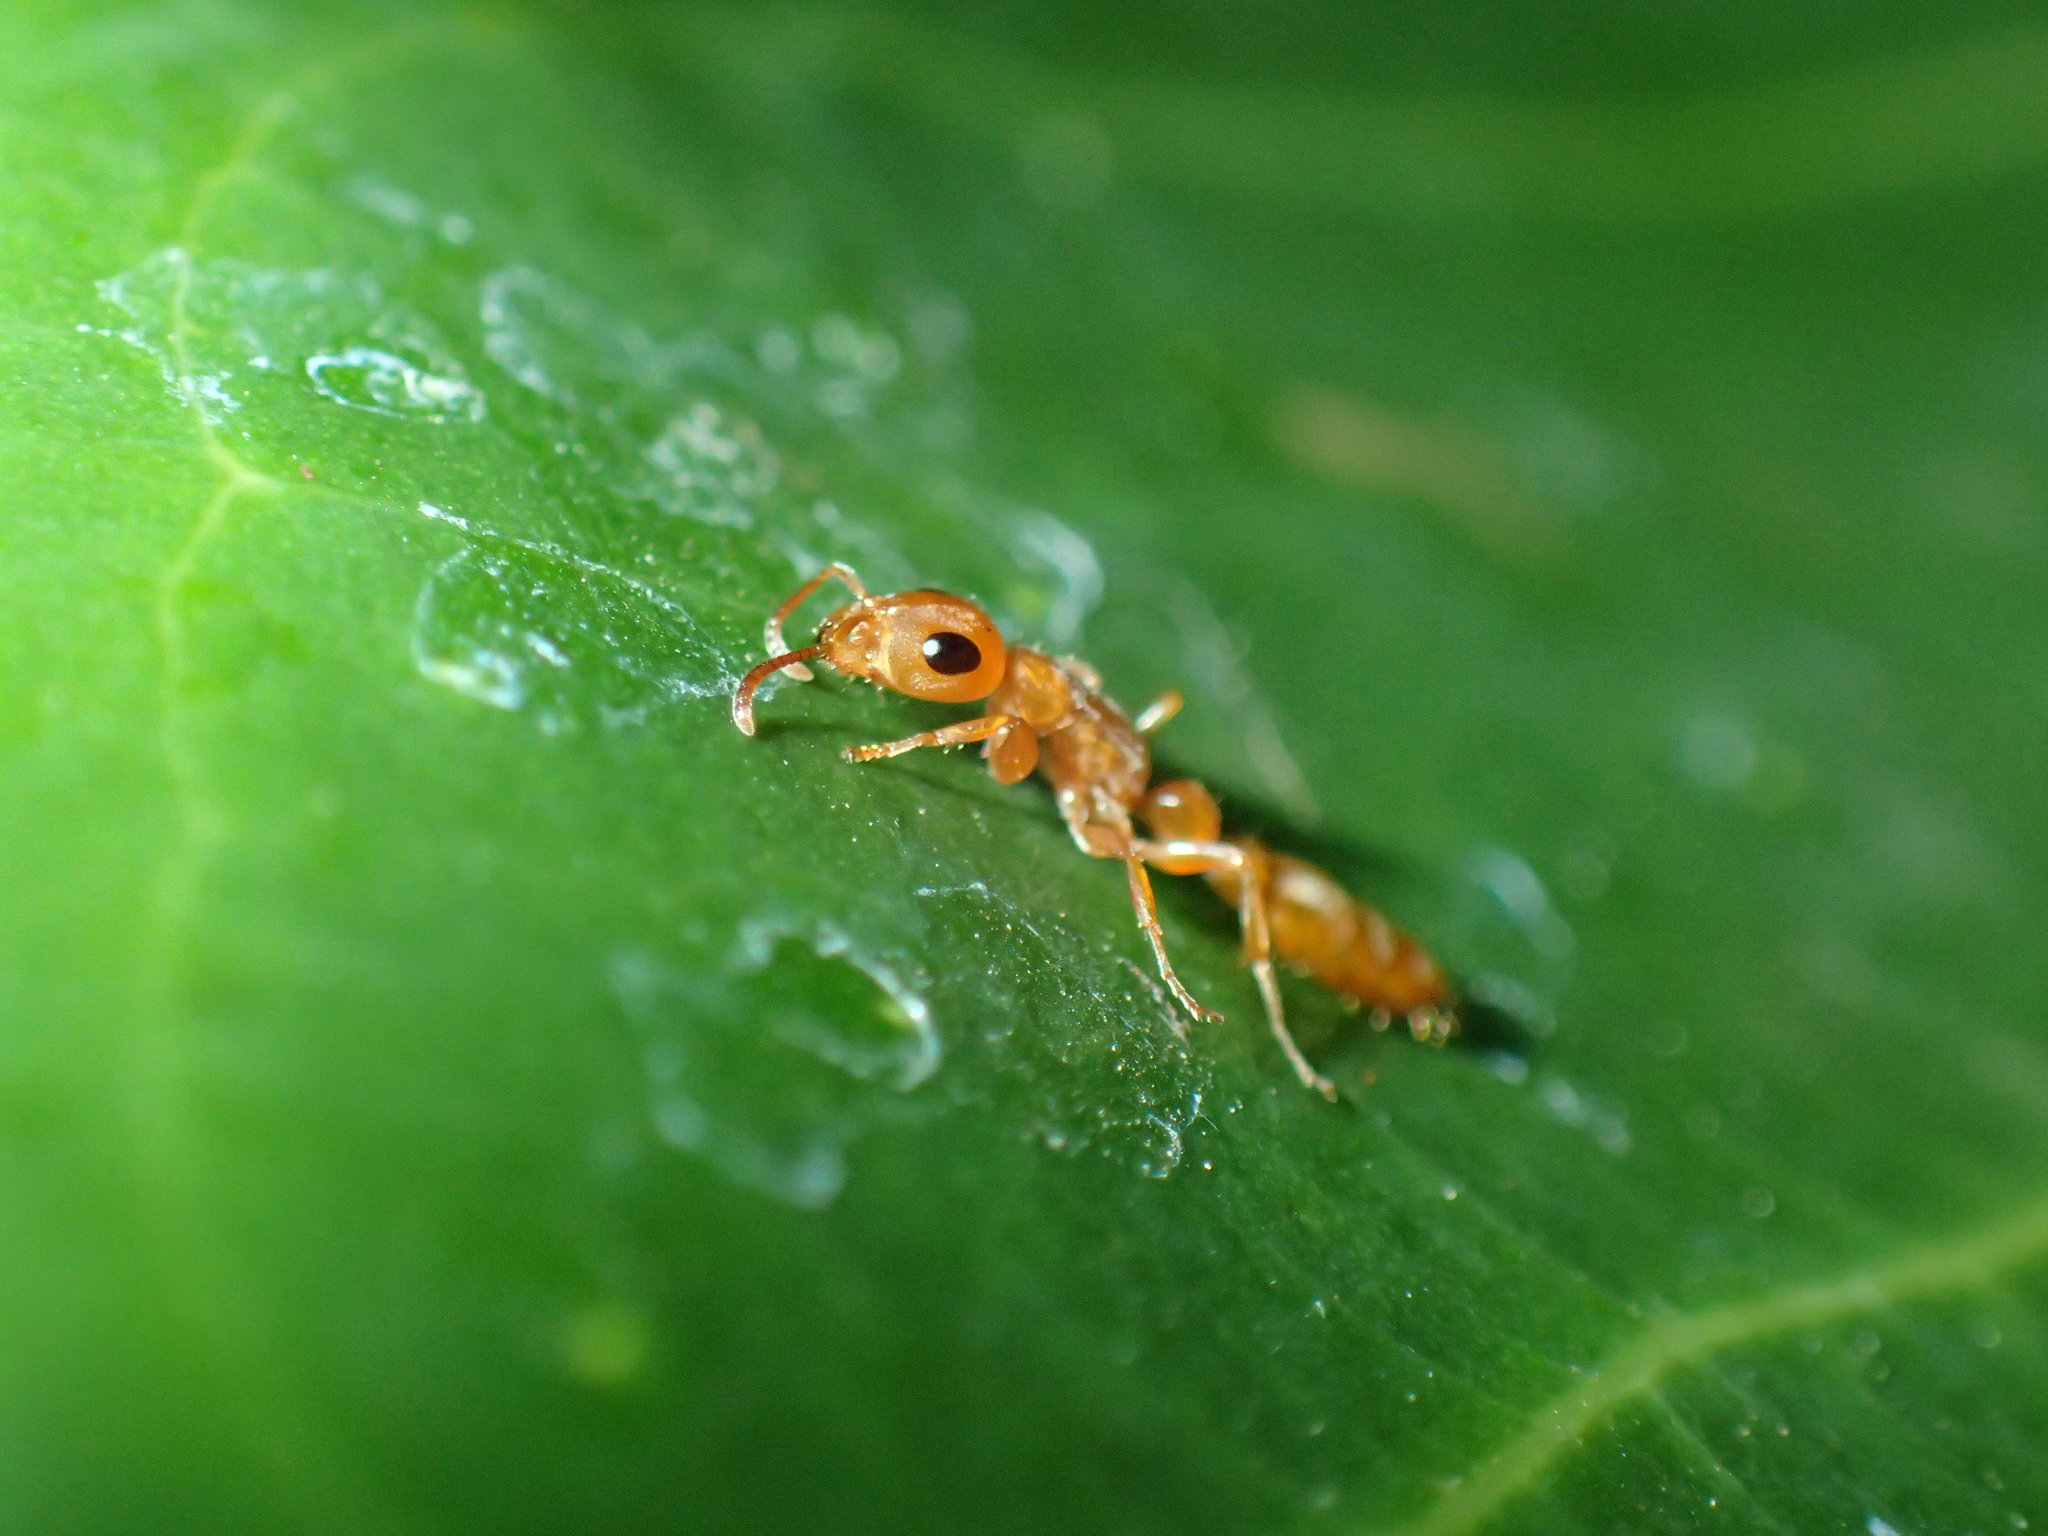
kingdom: Animalia
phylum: Arthropoda
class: Insecta
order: Hymenoptera
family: Formicidae
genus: Tetraponera
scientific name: Tetraponera natalensis
